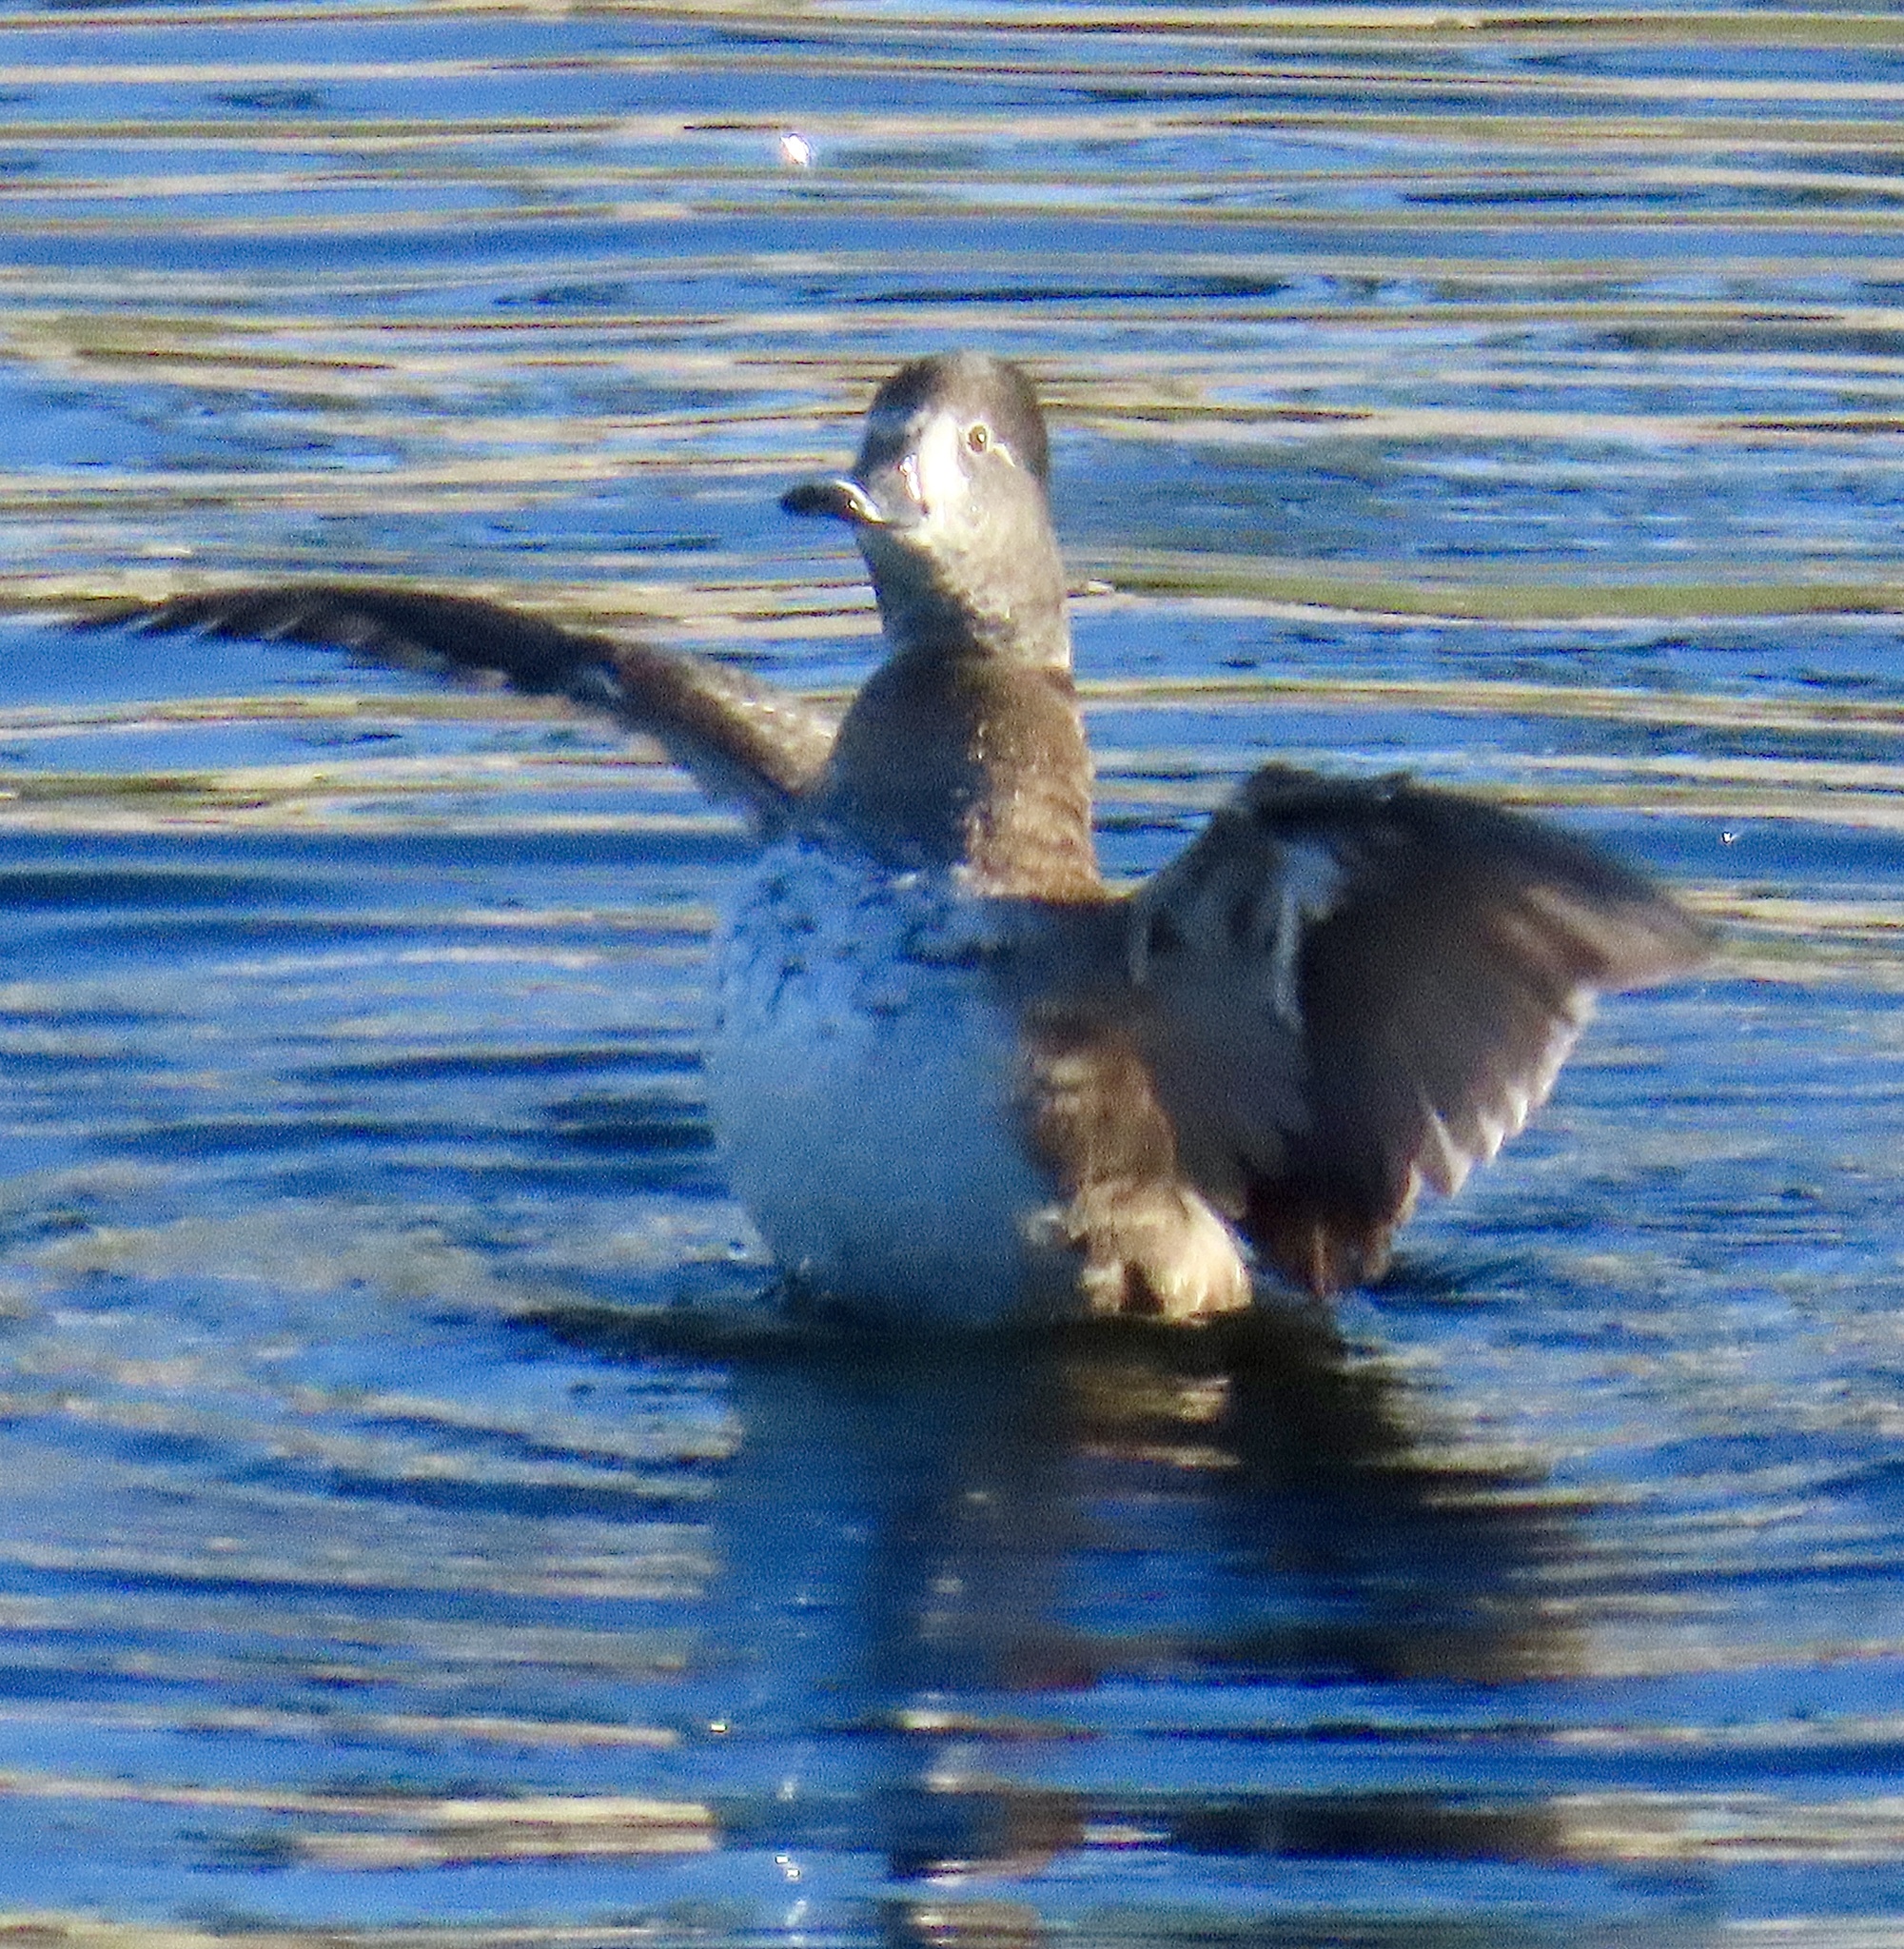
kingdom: Animalia
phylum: Chordata
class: Aves
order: Anseriformes
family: Anatidae
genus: Aythya
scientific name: Aythya collaris
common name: Ring-necked duck
